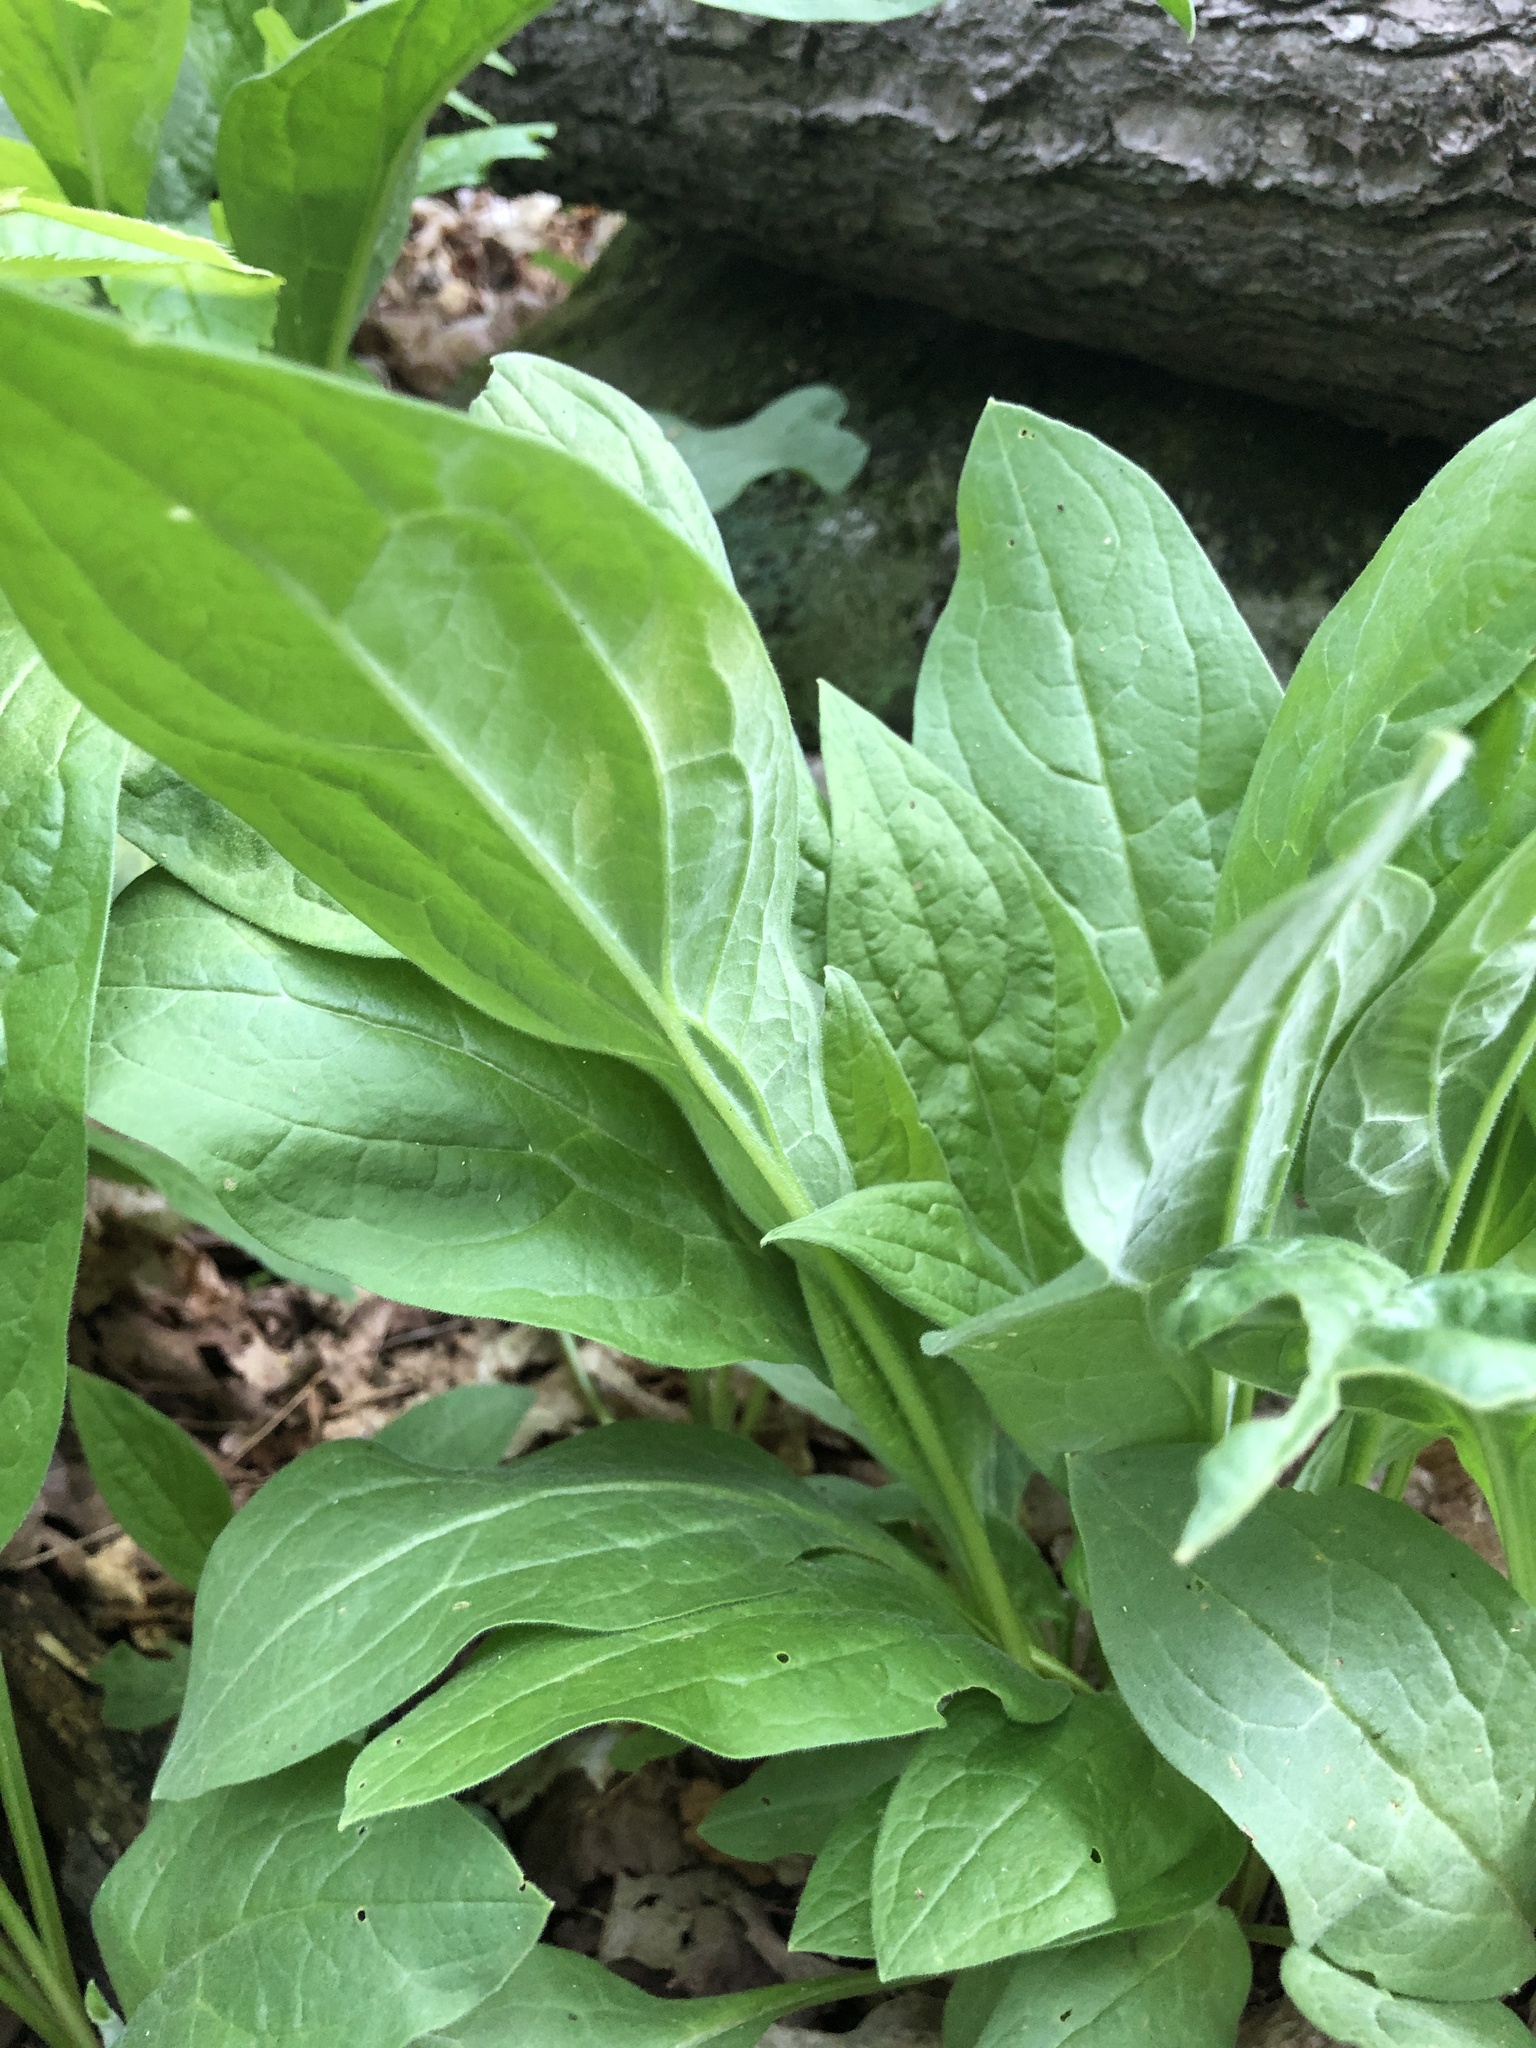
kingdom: Plantae
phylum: Tracheophyta
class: Magnoliopsida
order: Boraginales
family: Boraginaceae
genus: Cynoglossum
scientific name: Cynoglossum officinale
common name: Hound's-tongue
